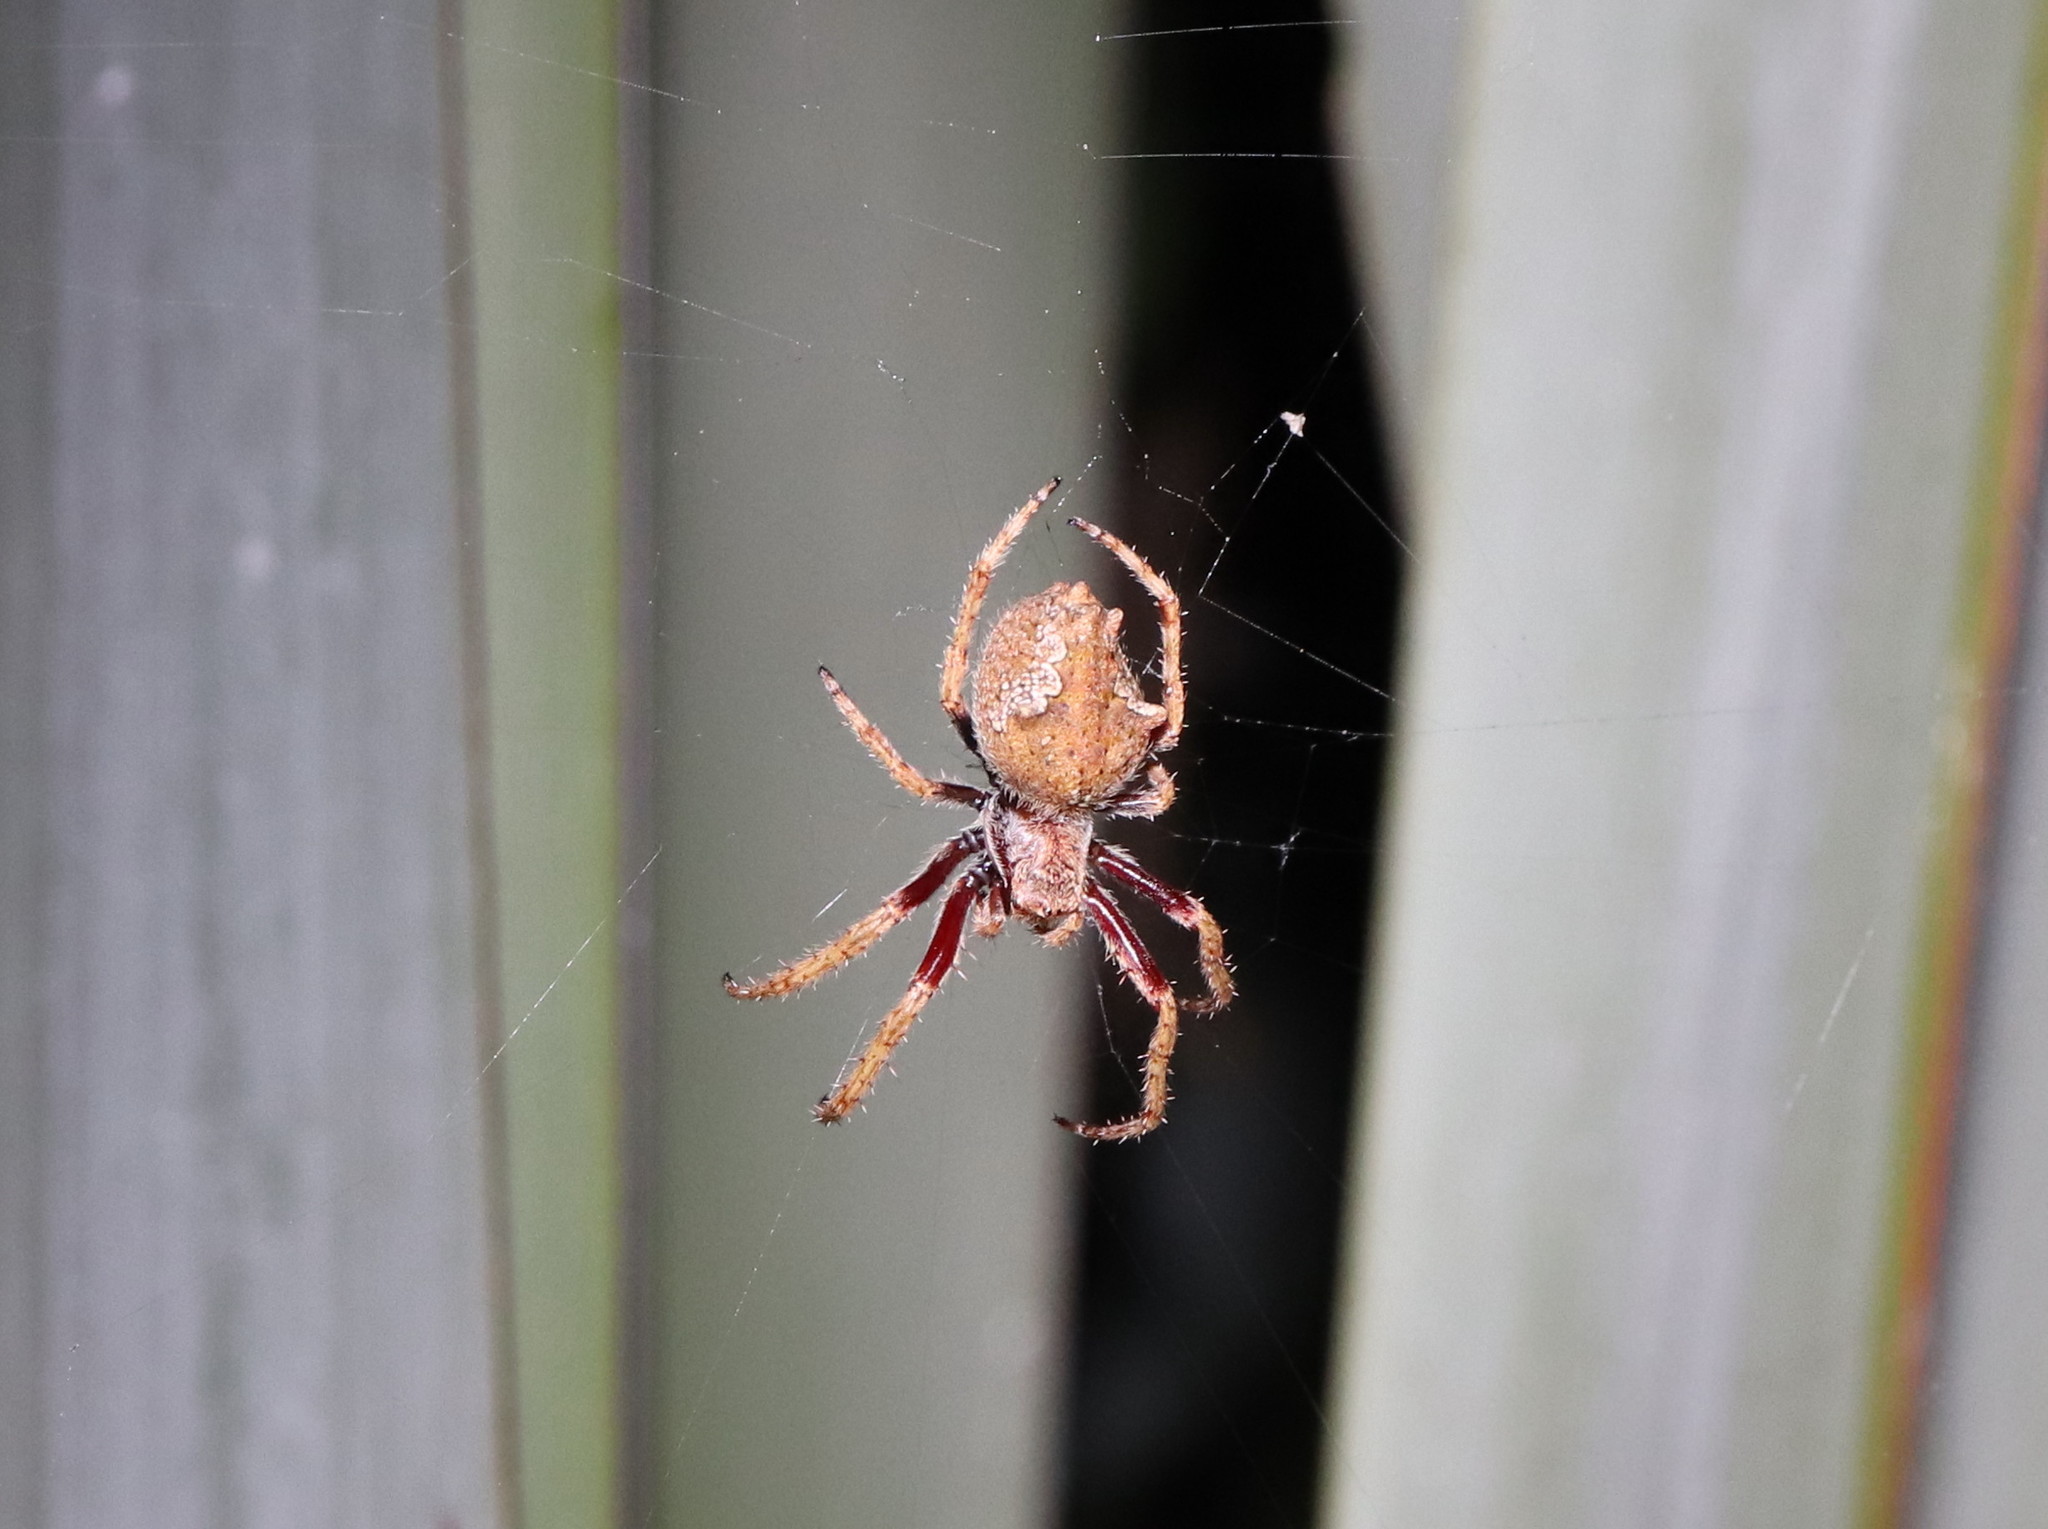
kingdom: Animalia
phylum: Arthropoda
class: Arachnida
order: Araneae
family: Araneidae
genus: Eriophora
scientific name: Eriophora pustulosa
